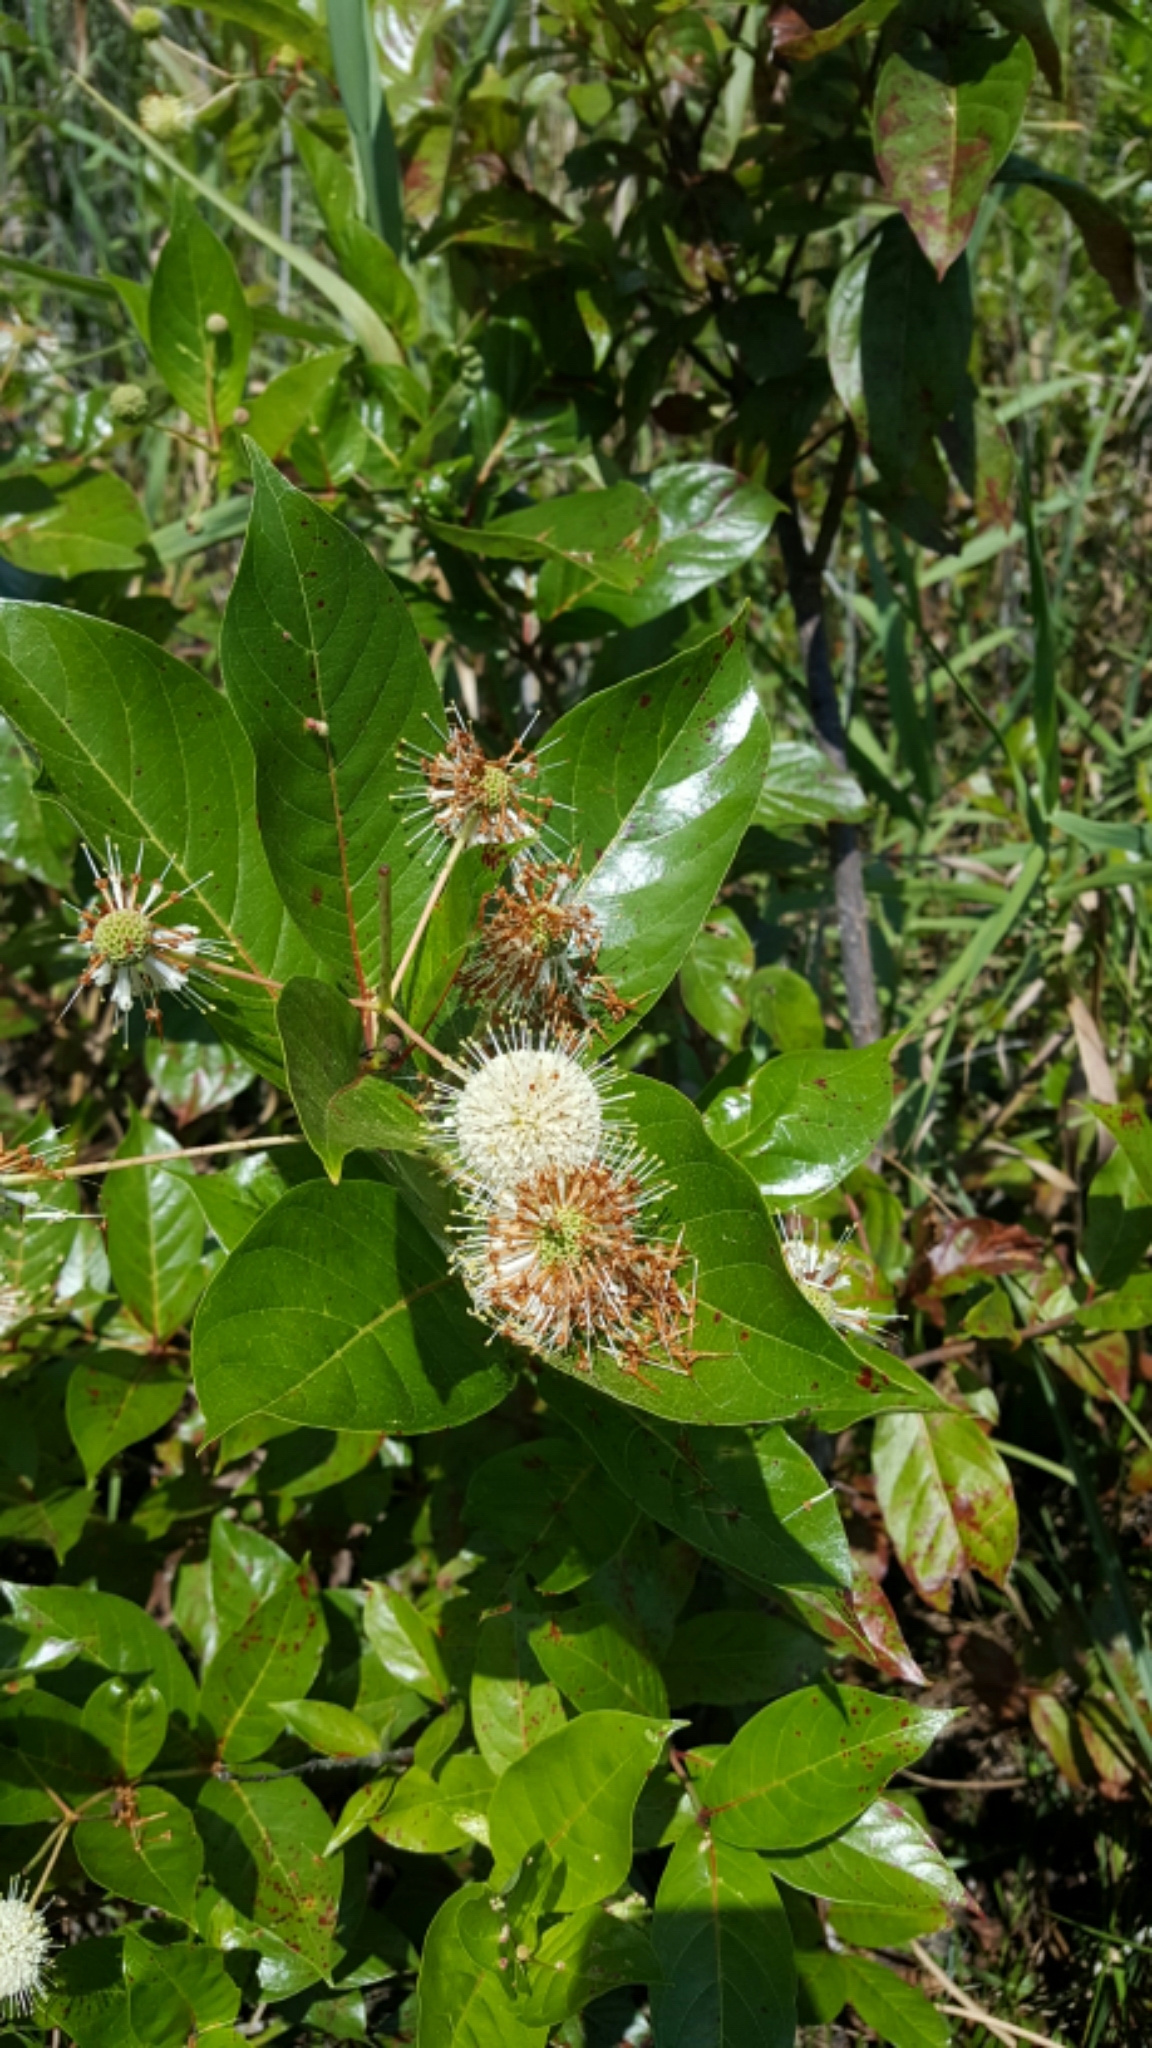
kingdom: Plantae
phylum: Tracheophyta
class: Magnoliopsida
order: Gentianales
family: Rubiaceae
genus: Cephalanthus
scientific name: Cephalanthus occidentalis
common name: Button-willow
